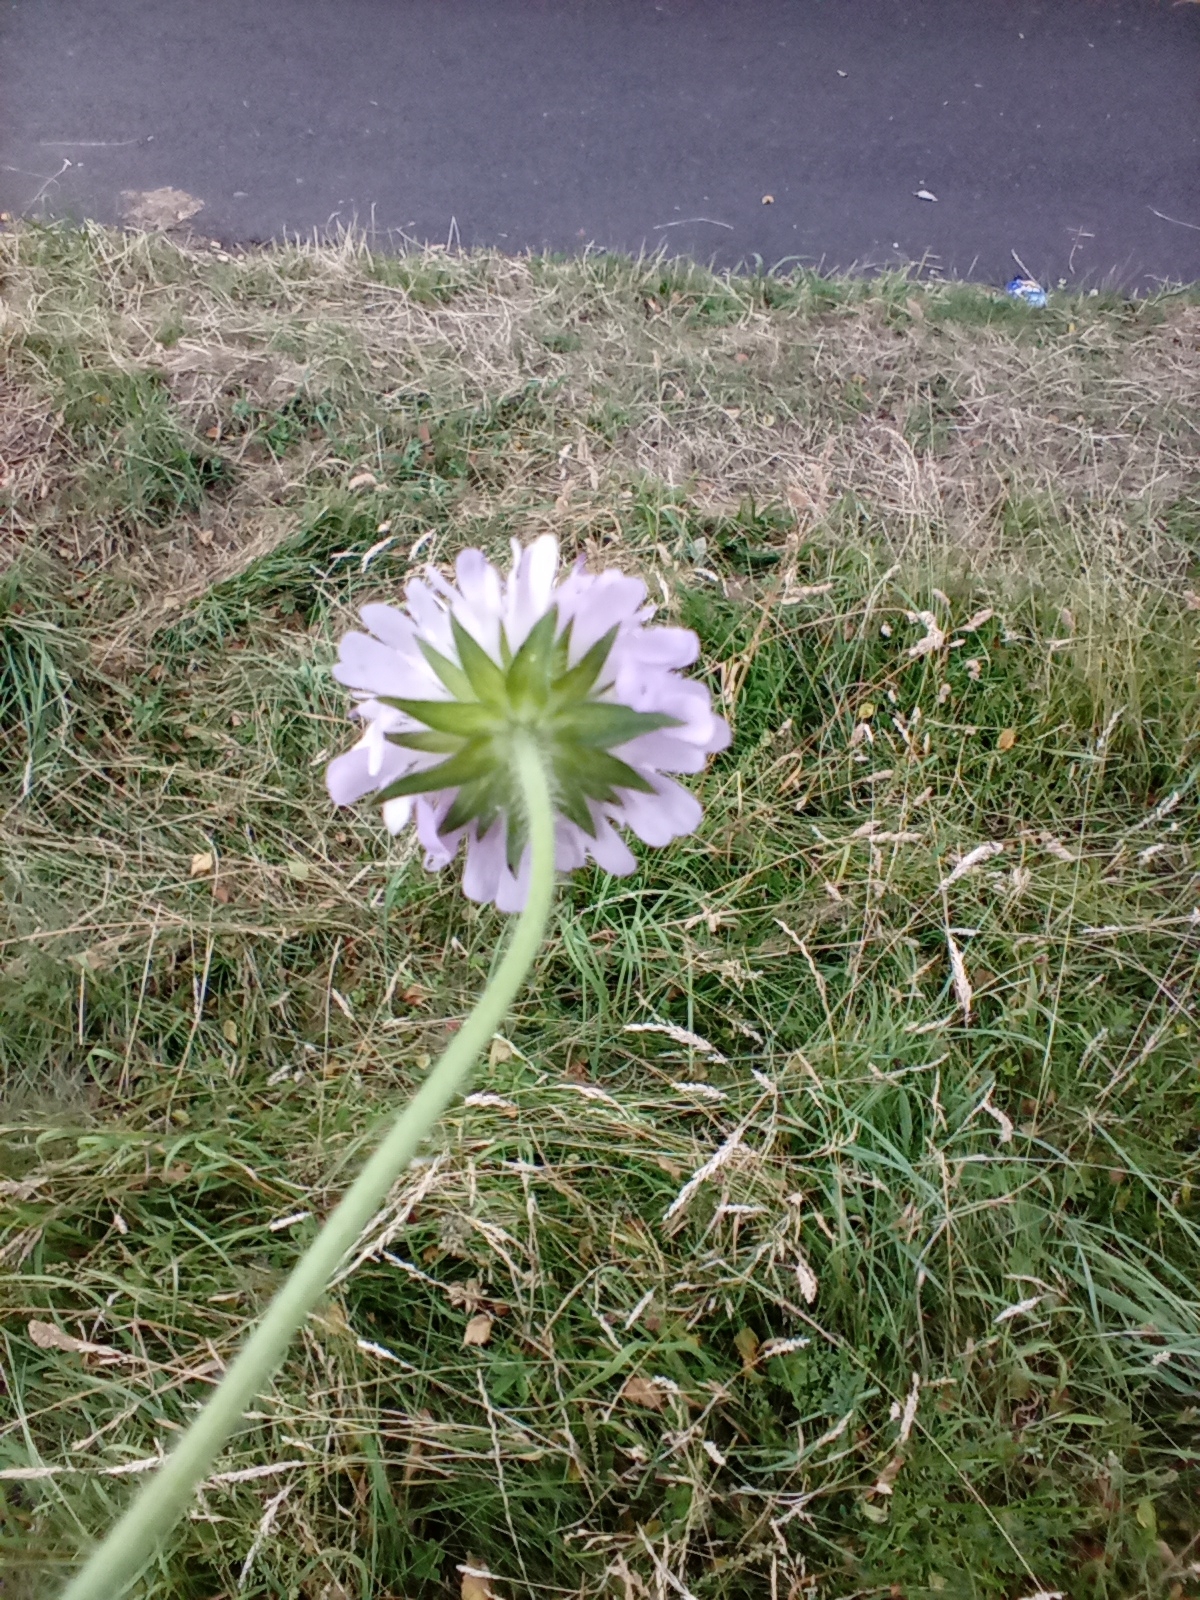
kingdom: Plantae
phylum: Tracheophyta
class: Magnoliopsida
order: Dipsacales
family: Caprifoliaceae
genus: Knautia
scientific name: Knautia arvensis
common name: Field scabiosa
